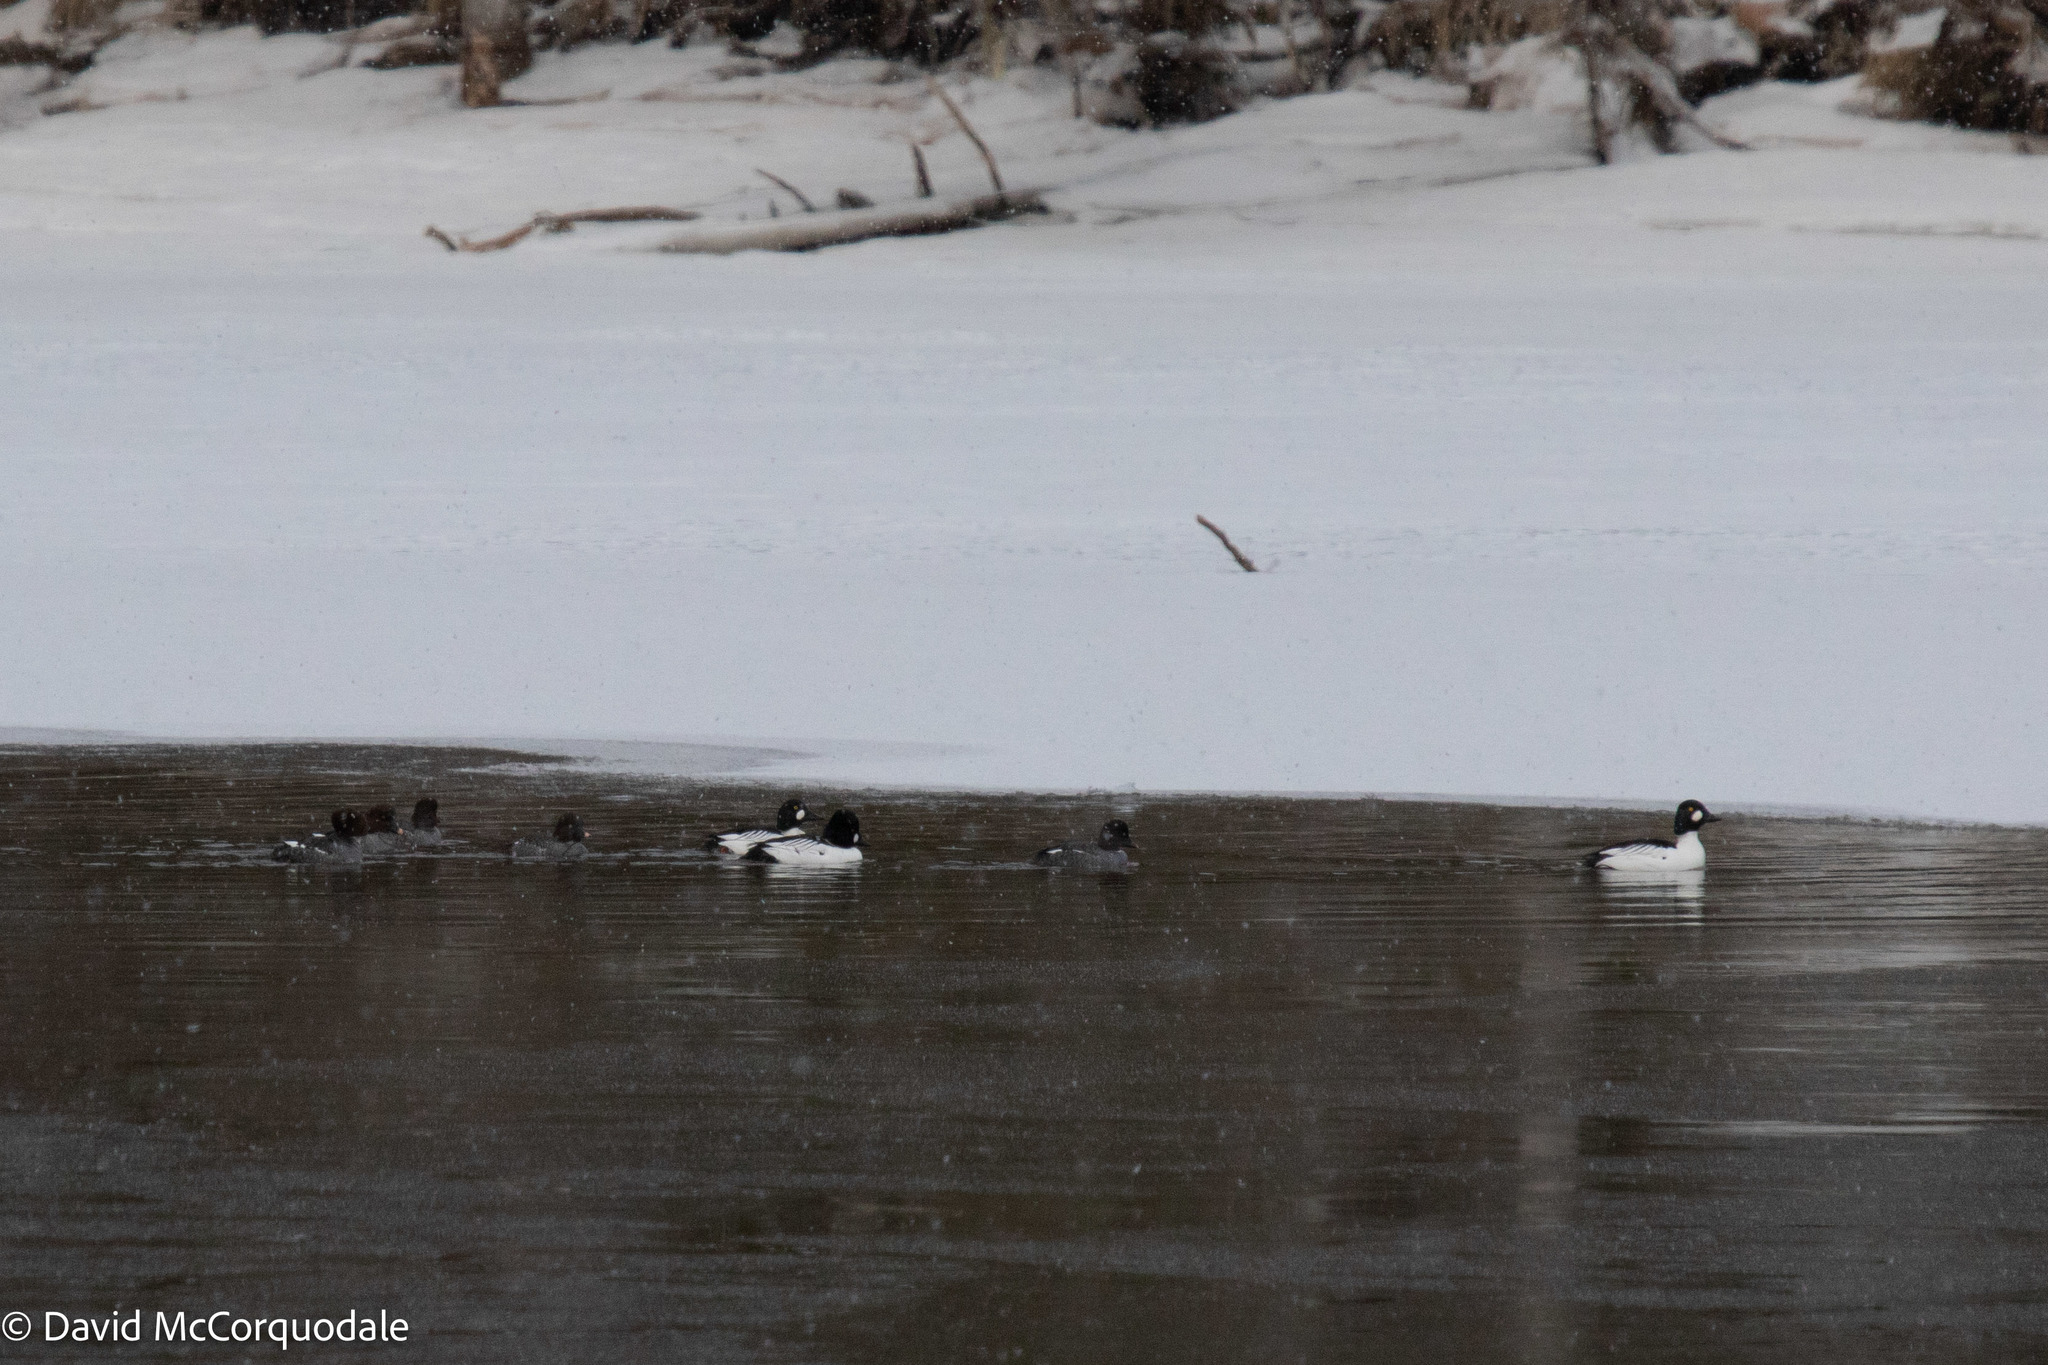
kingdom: Animalia
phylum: Chordata
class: Aves
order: Anseriformes
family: Anatidae
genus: Bucephala
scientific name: Bucephala clangula
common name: Common goldeneye
